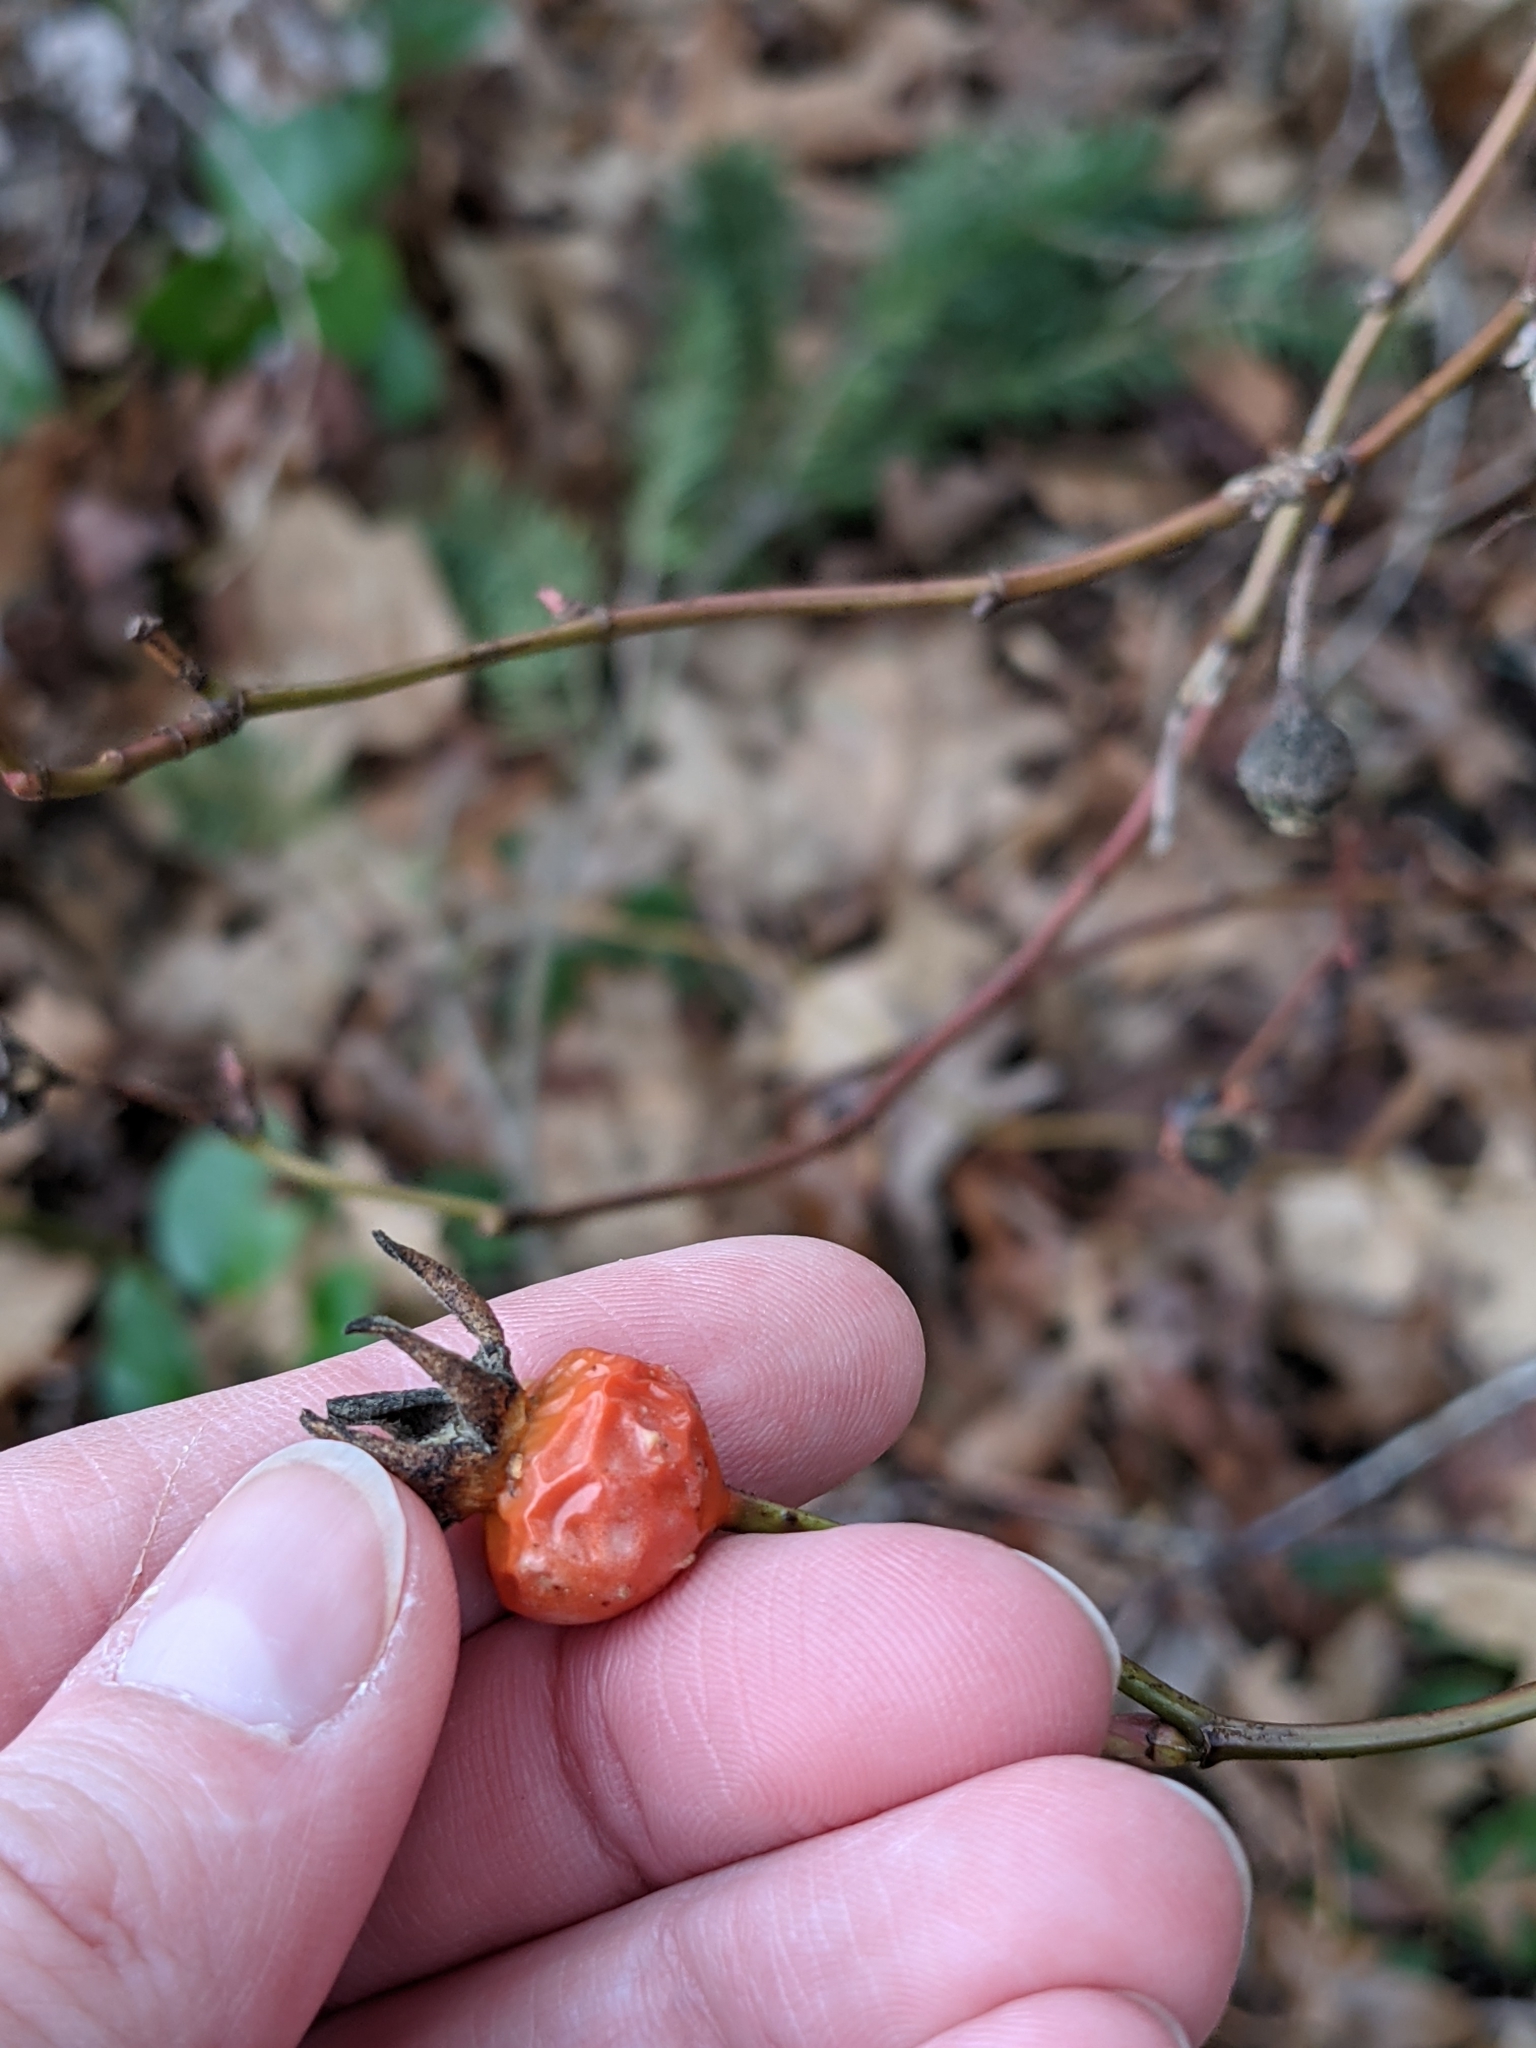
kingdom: Plantae
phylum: Tracheophyta
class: Magnoliopsida
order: Rosales
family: Rosaceae
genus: Rosa
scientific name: Rosa nutkana
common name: Nootka rose
